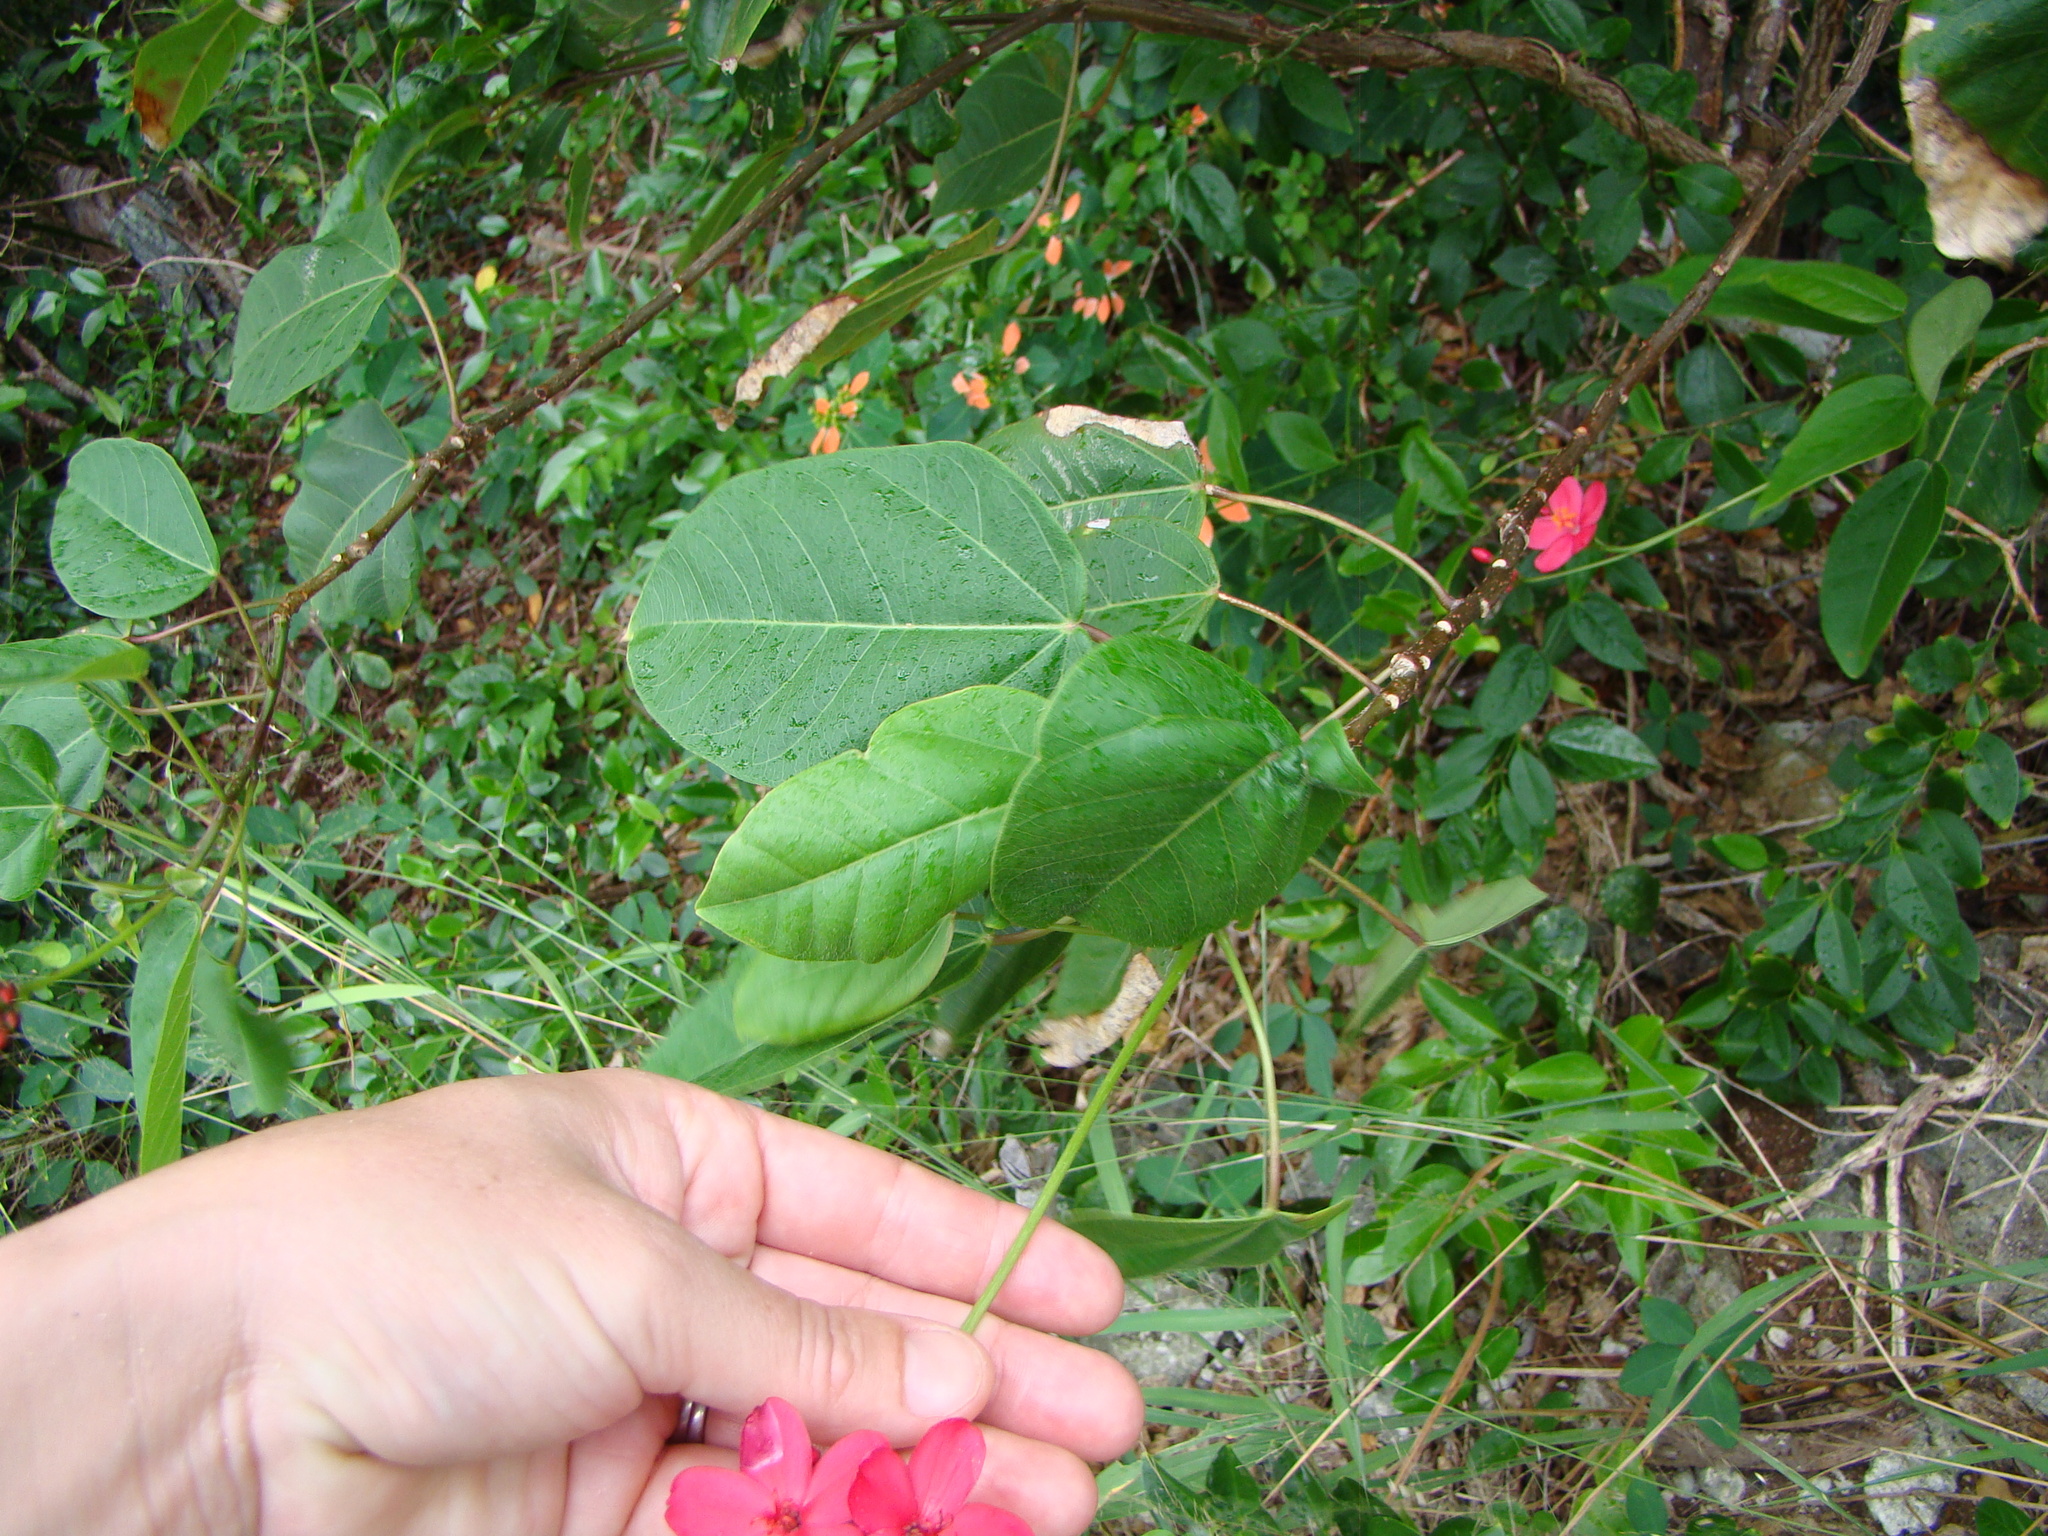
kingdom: Plantae
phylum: Tracheophyta
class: Magnoliopsida
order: Malpighiales
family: Euphorbiaceae
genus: Jatropha
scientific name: Jatropha integerrima
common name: Peregrina
